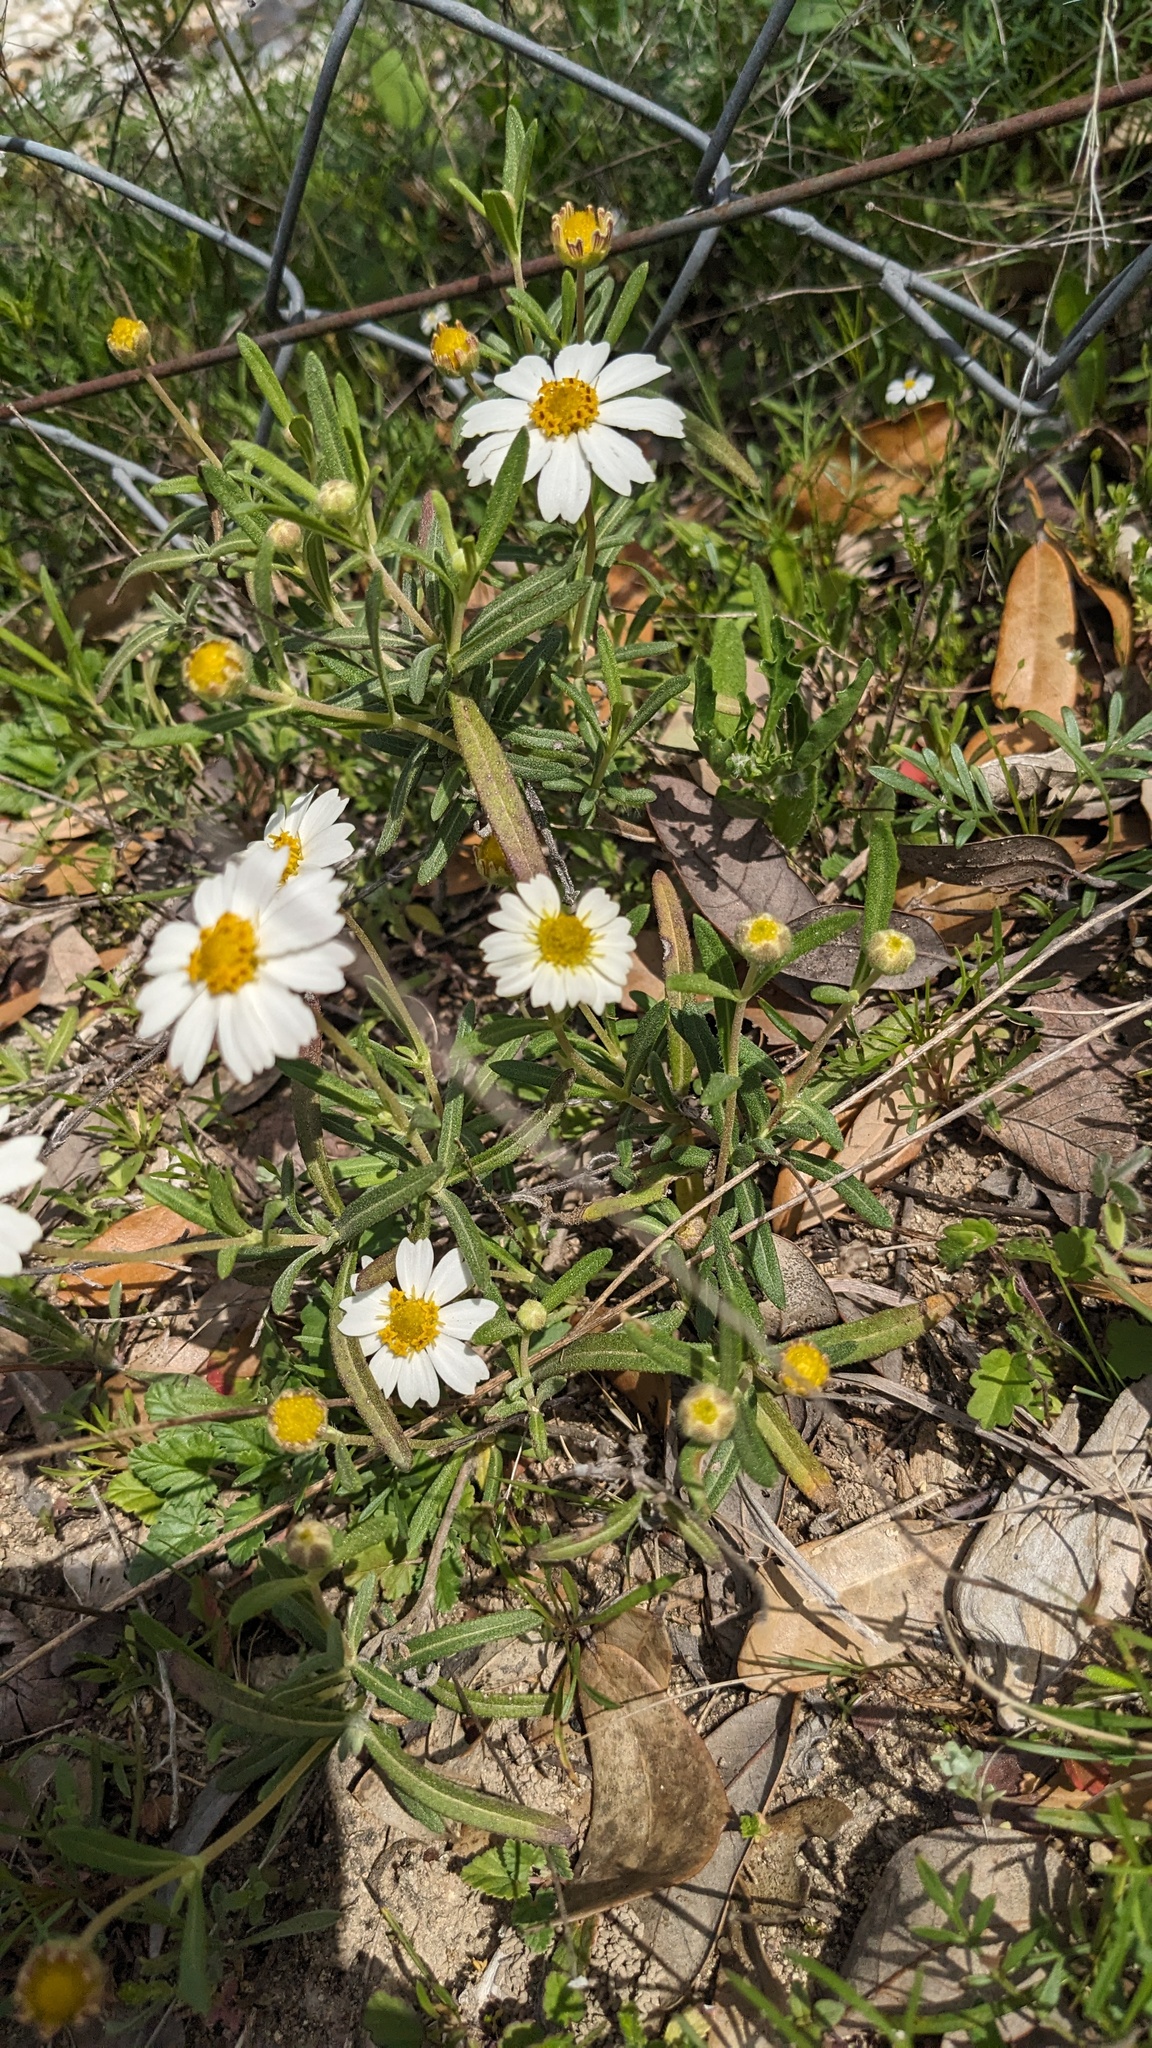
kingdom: Plantae
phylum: Tracheophyta
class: Magnoliopsida
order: Asterales
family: Asteraceae
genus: Melampodium
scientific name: Melampodium leucanthum
